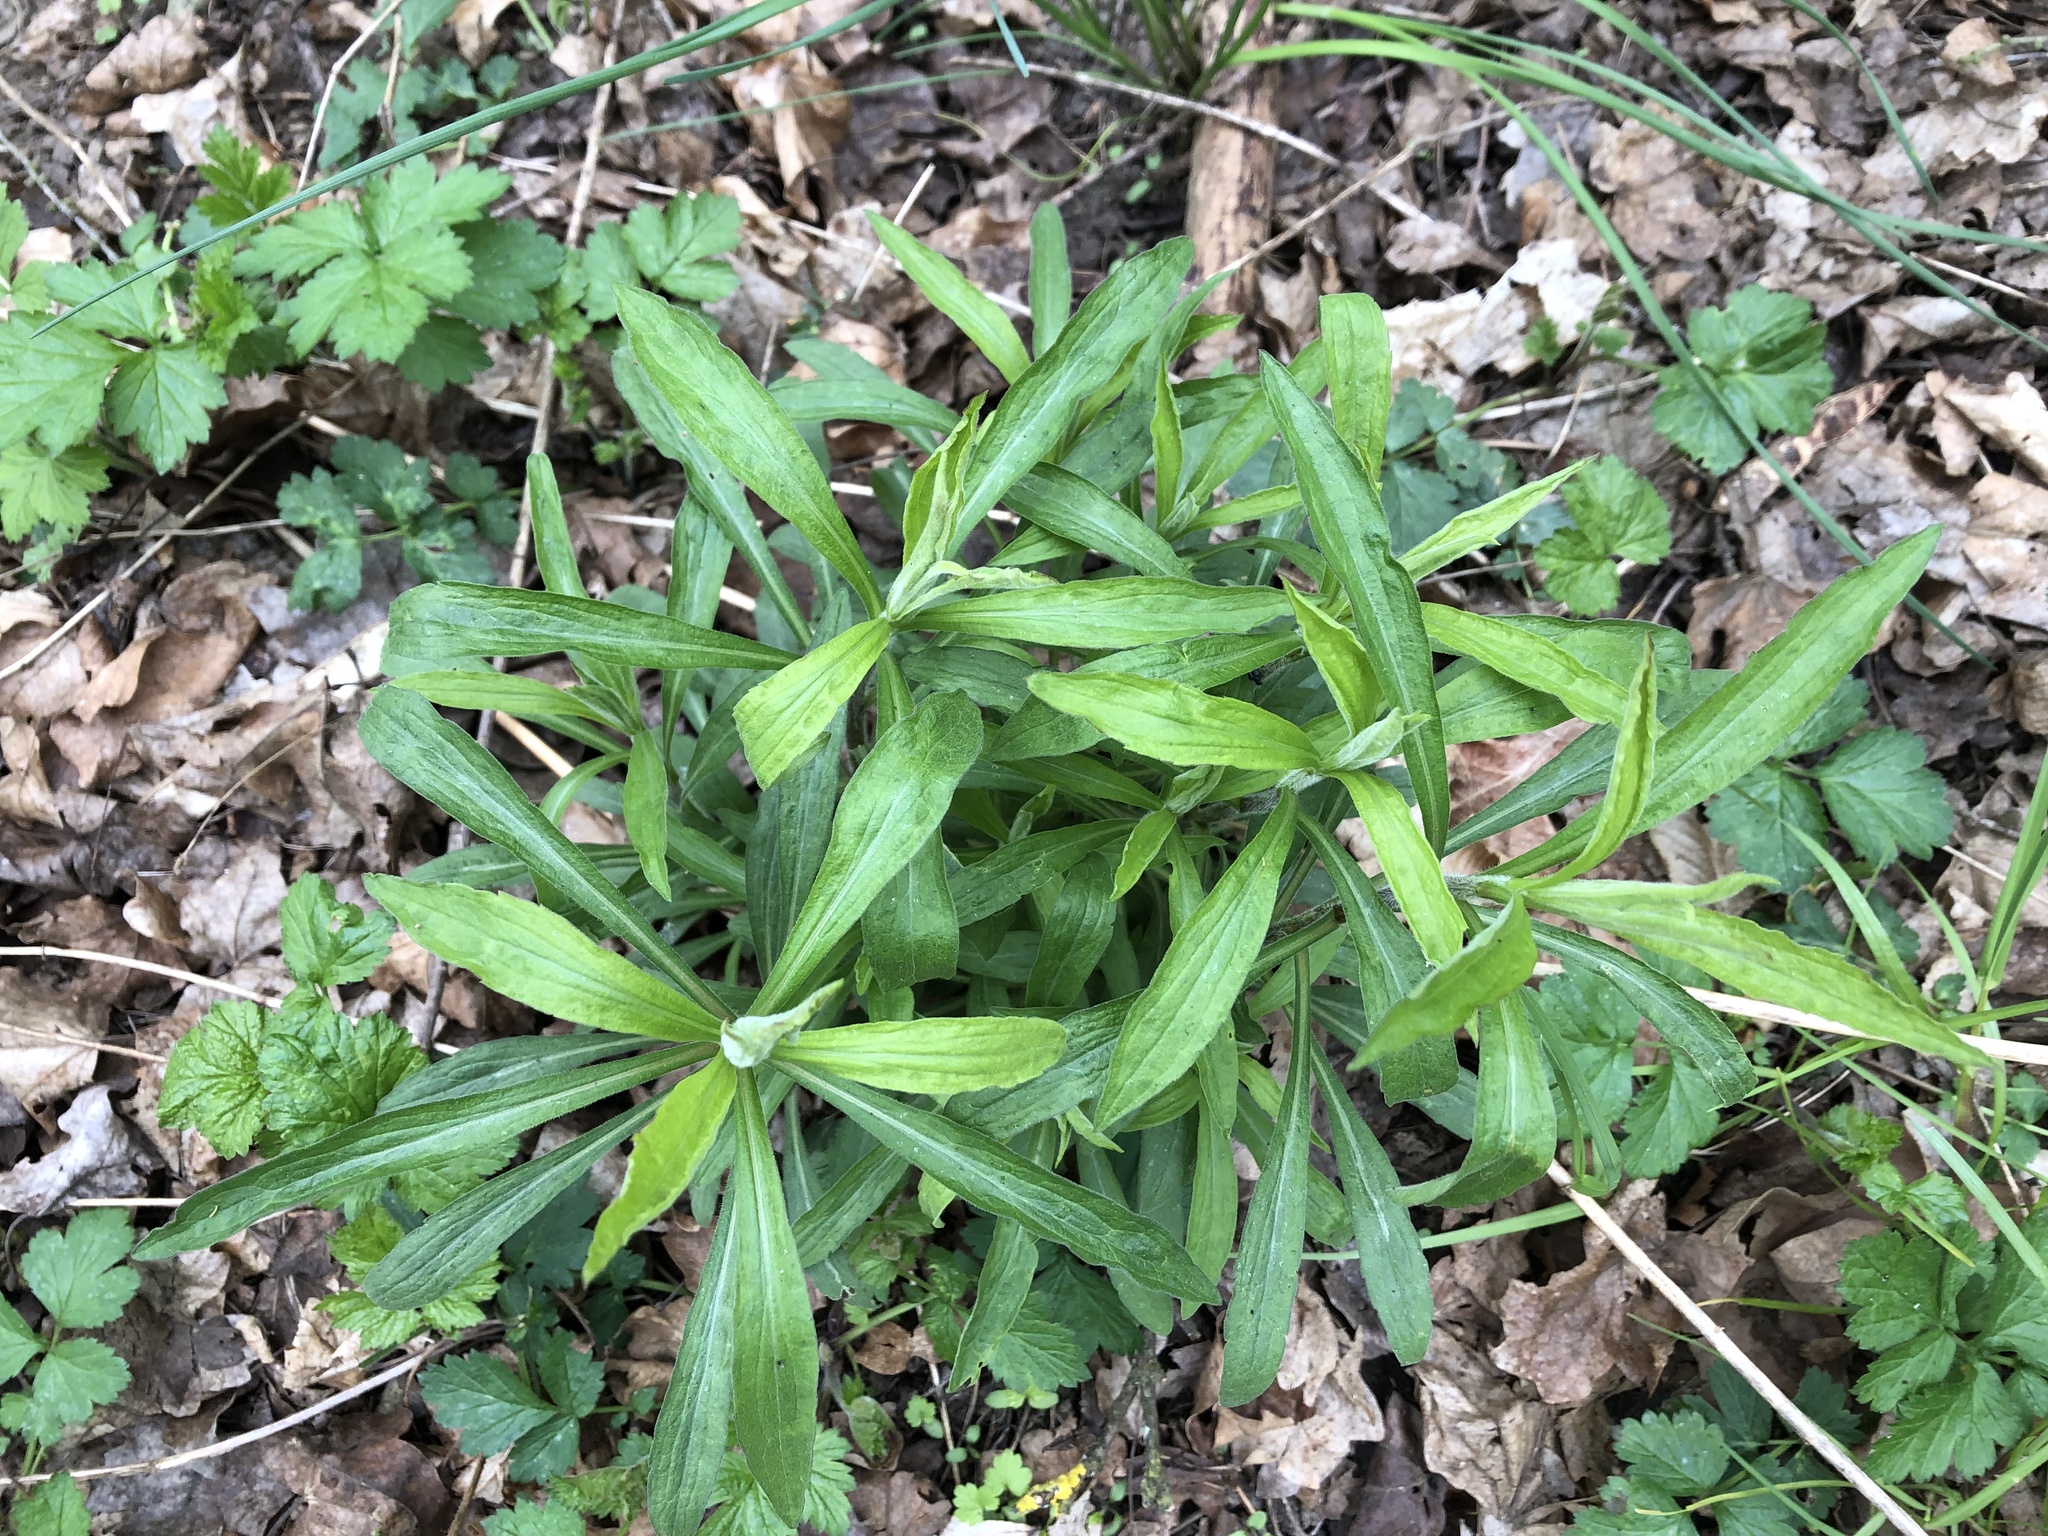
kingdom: Plantae
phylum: Tracheophyta
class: Magnoliopsida
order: Asterales
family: Asteraceae
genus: Solidago
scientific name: Solidago canadensis
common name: Canada goldenrod
